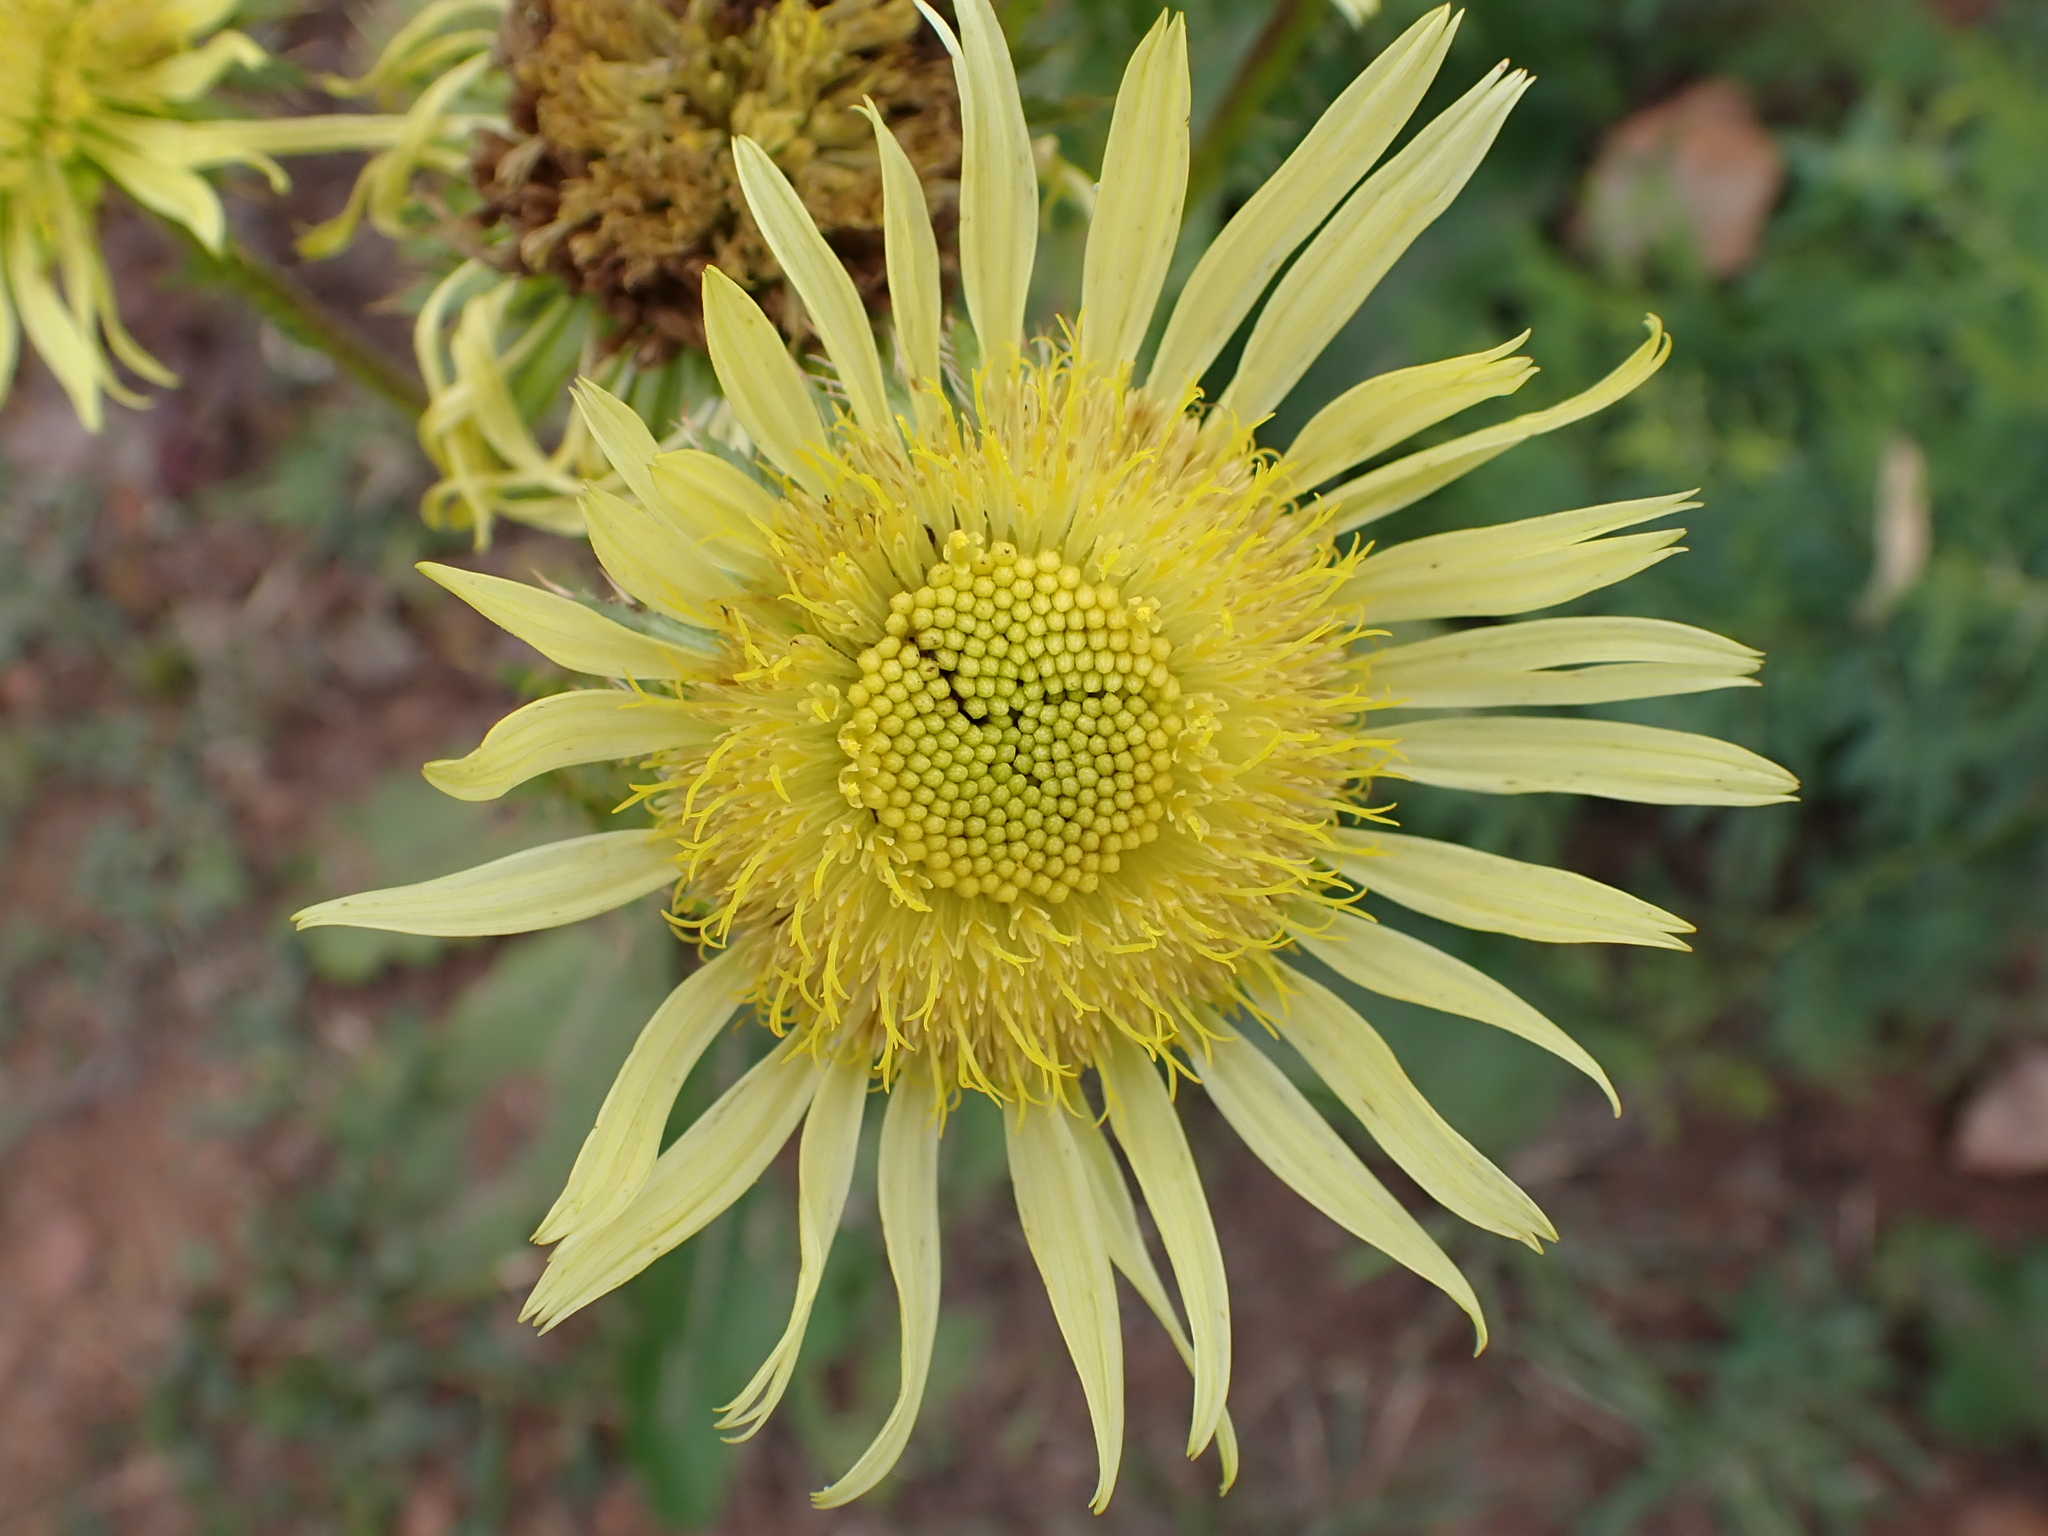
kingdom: Plantae
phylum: Tracheophyta
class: Magnoliopsida
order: Asterales
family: Asteraceae
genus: Berkheya
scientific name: Berkheya radula
